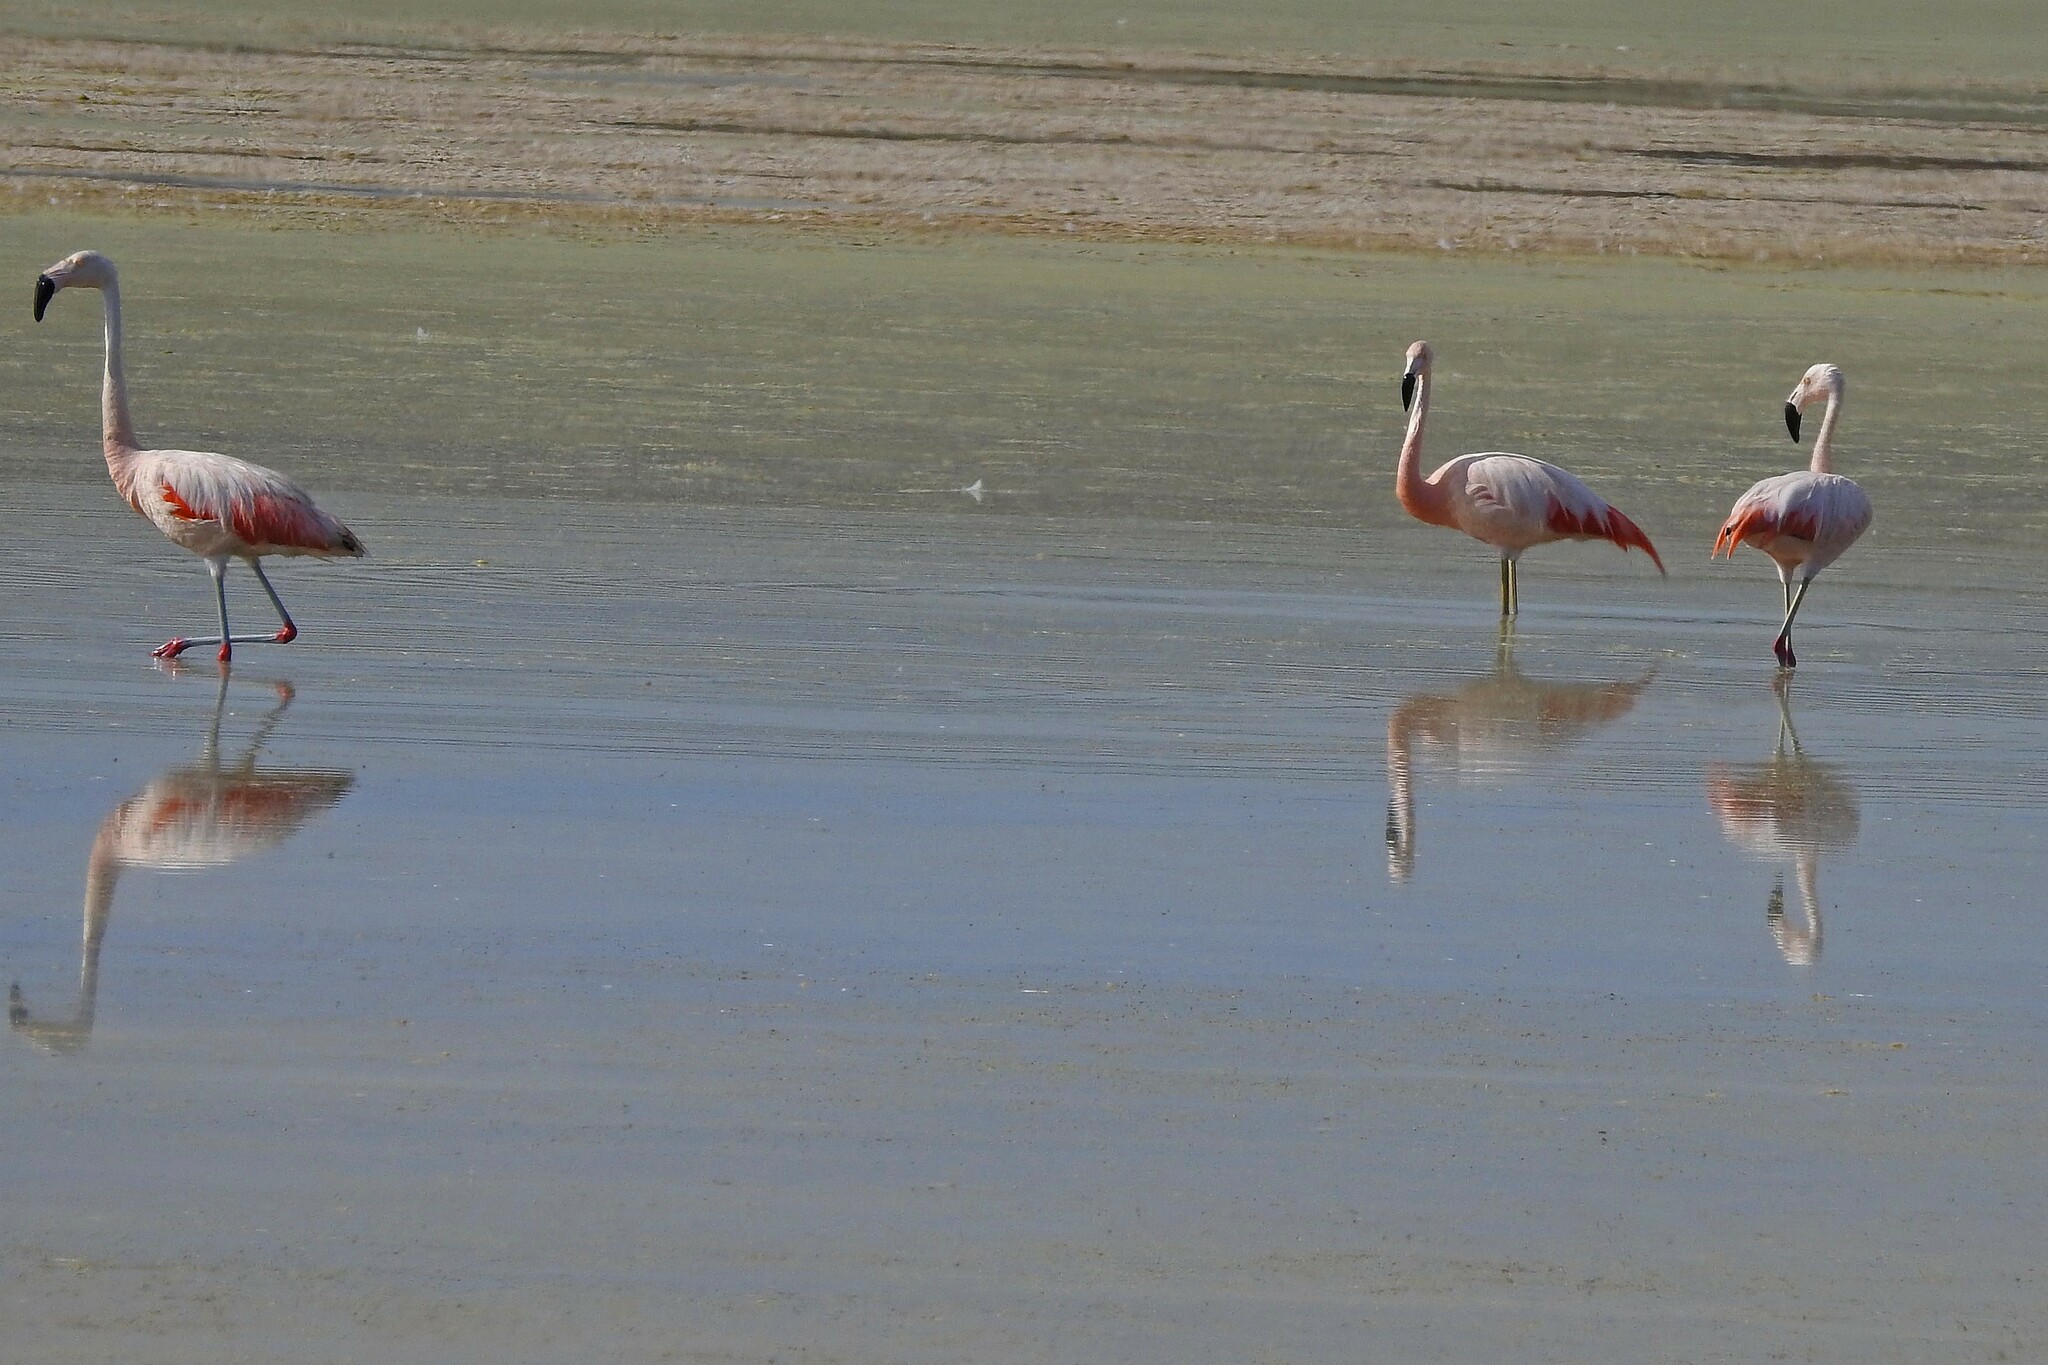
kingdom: Animalia
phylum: Chordata
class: Aves
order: Phoenicopteriformes
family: Phoenicopteridae
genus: Phoenicopterus
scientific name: Phoenicopterus chilensis
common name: Chilean flamingo
